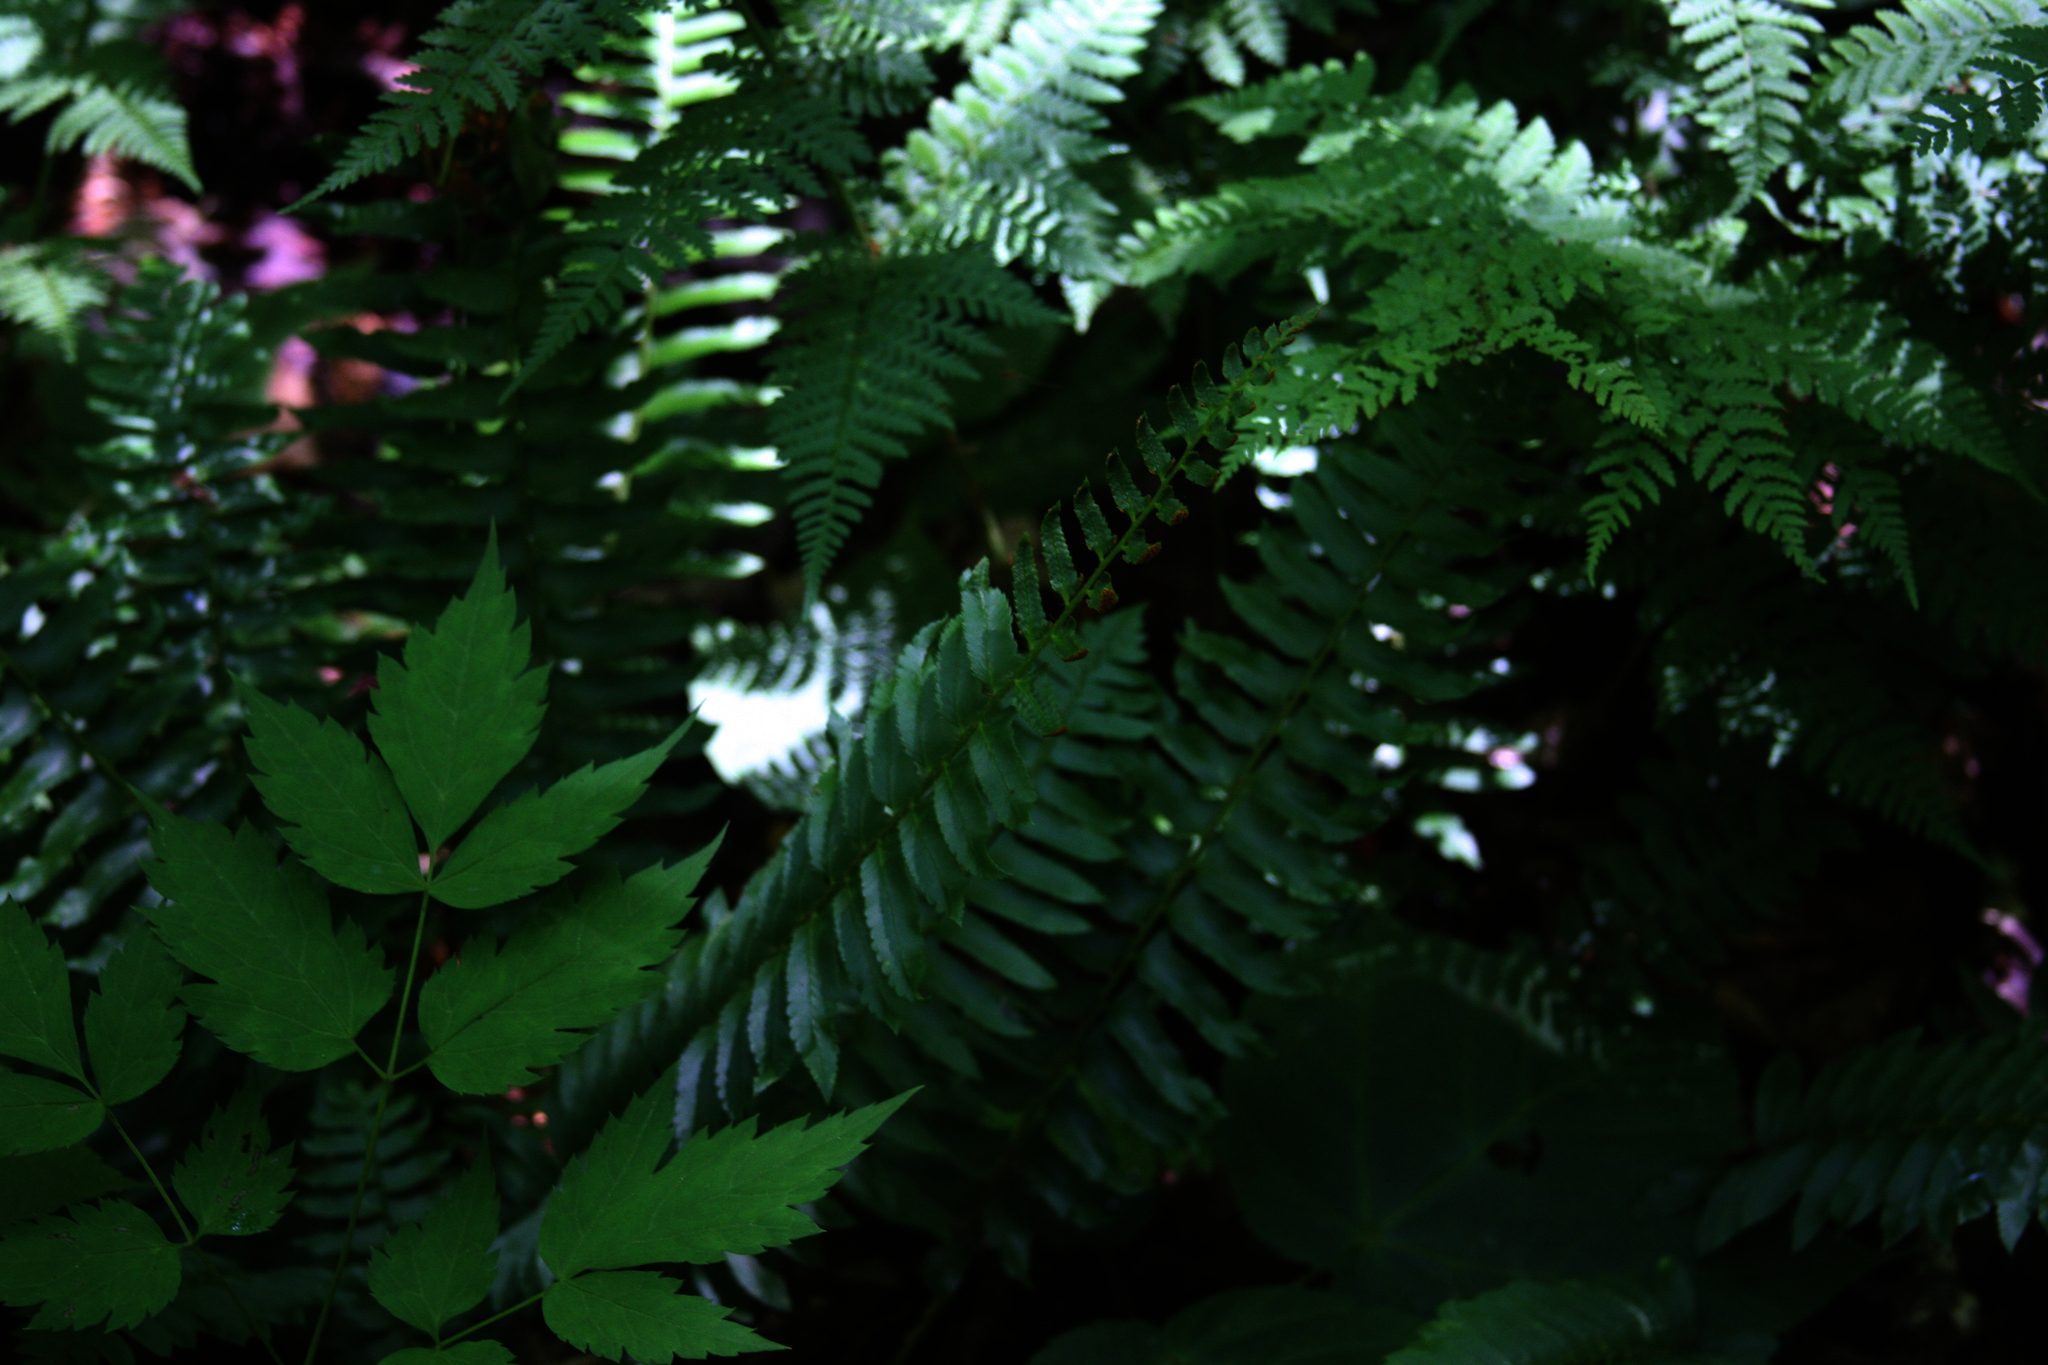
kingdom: Plantae
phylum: Tracheophyta
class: Polypodiopsida
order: Polypodiales
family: Dryopteridaceae
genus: Polystichum
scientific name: Polystichum acrostichoides
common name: Christmas fern
